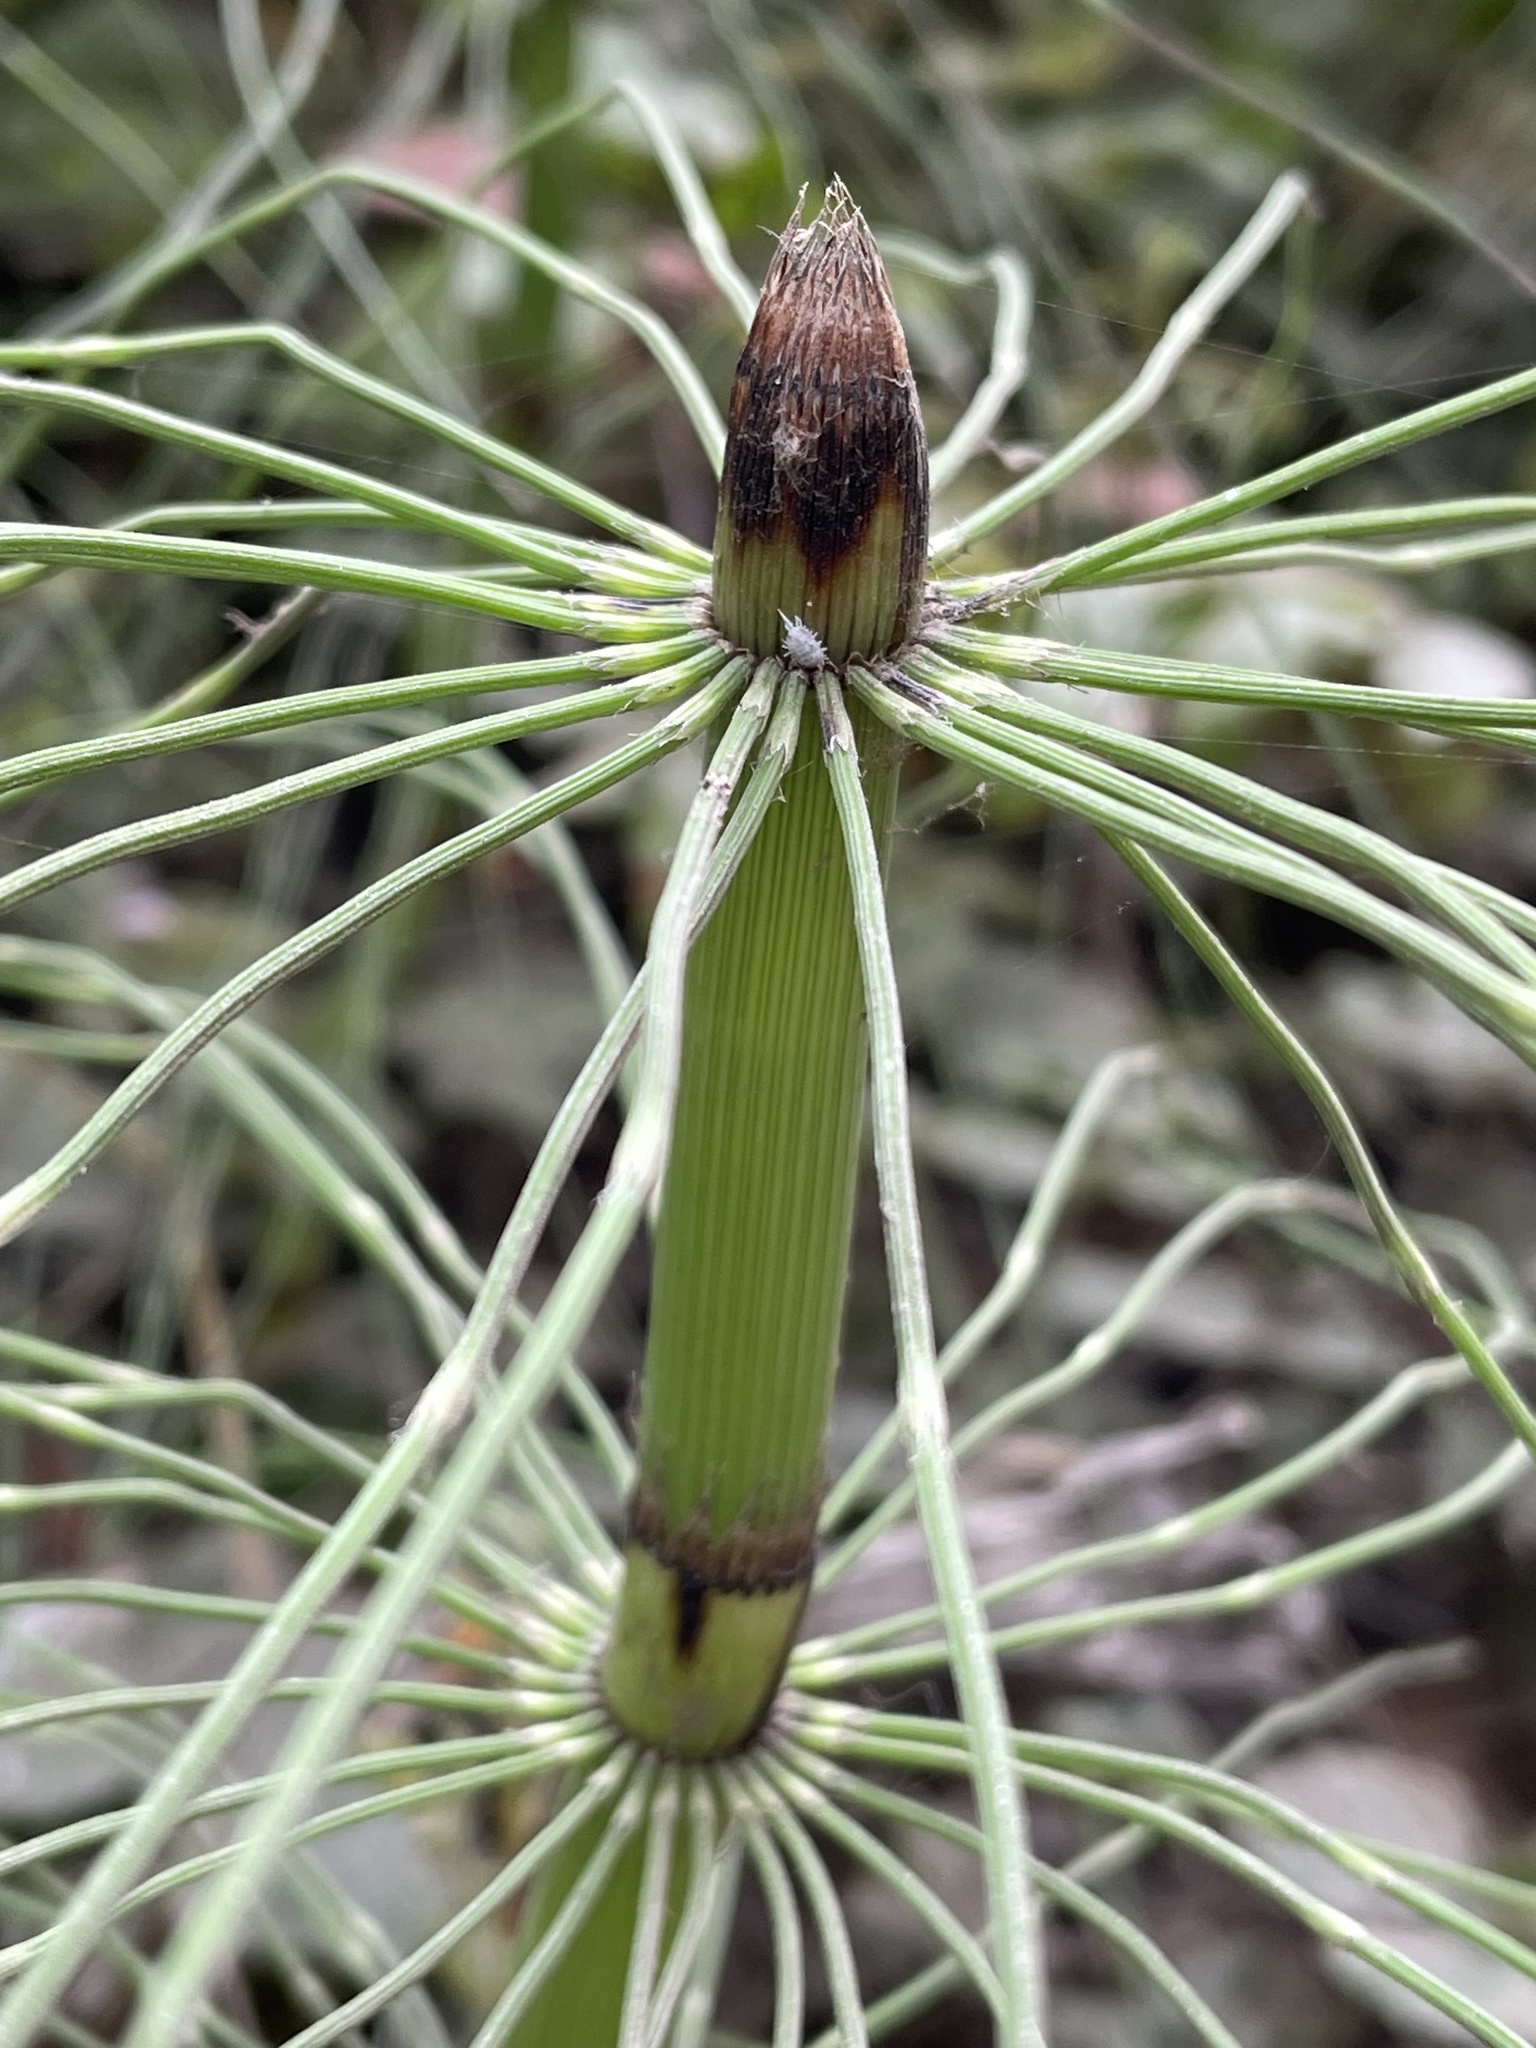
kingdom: Plantae
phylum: Tracheophyta
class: Polypodiopsida
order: Equisetales
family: Equisetaceae
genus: Equisetum
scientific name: Equisetum braunii
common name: Braun's horsetail
